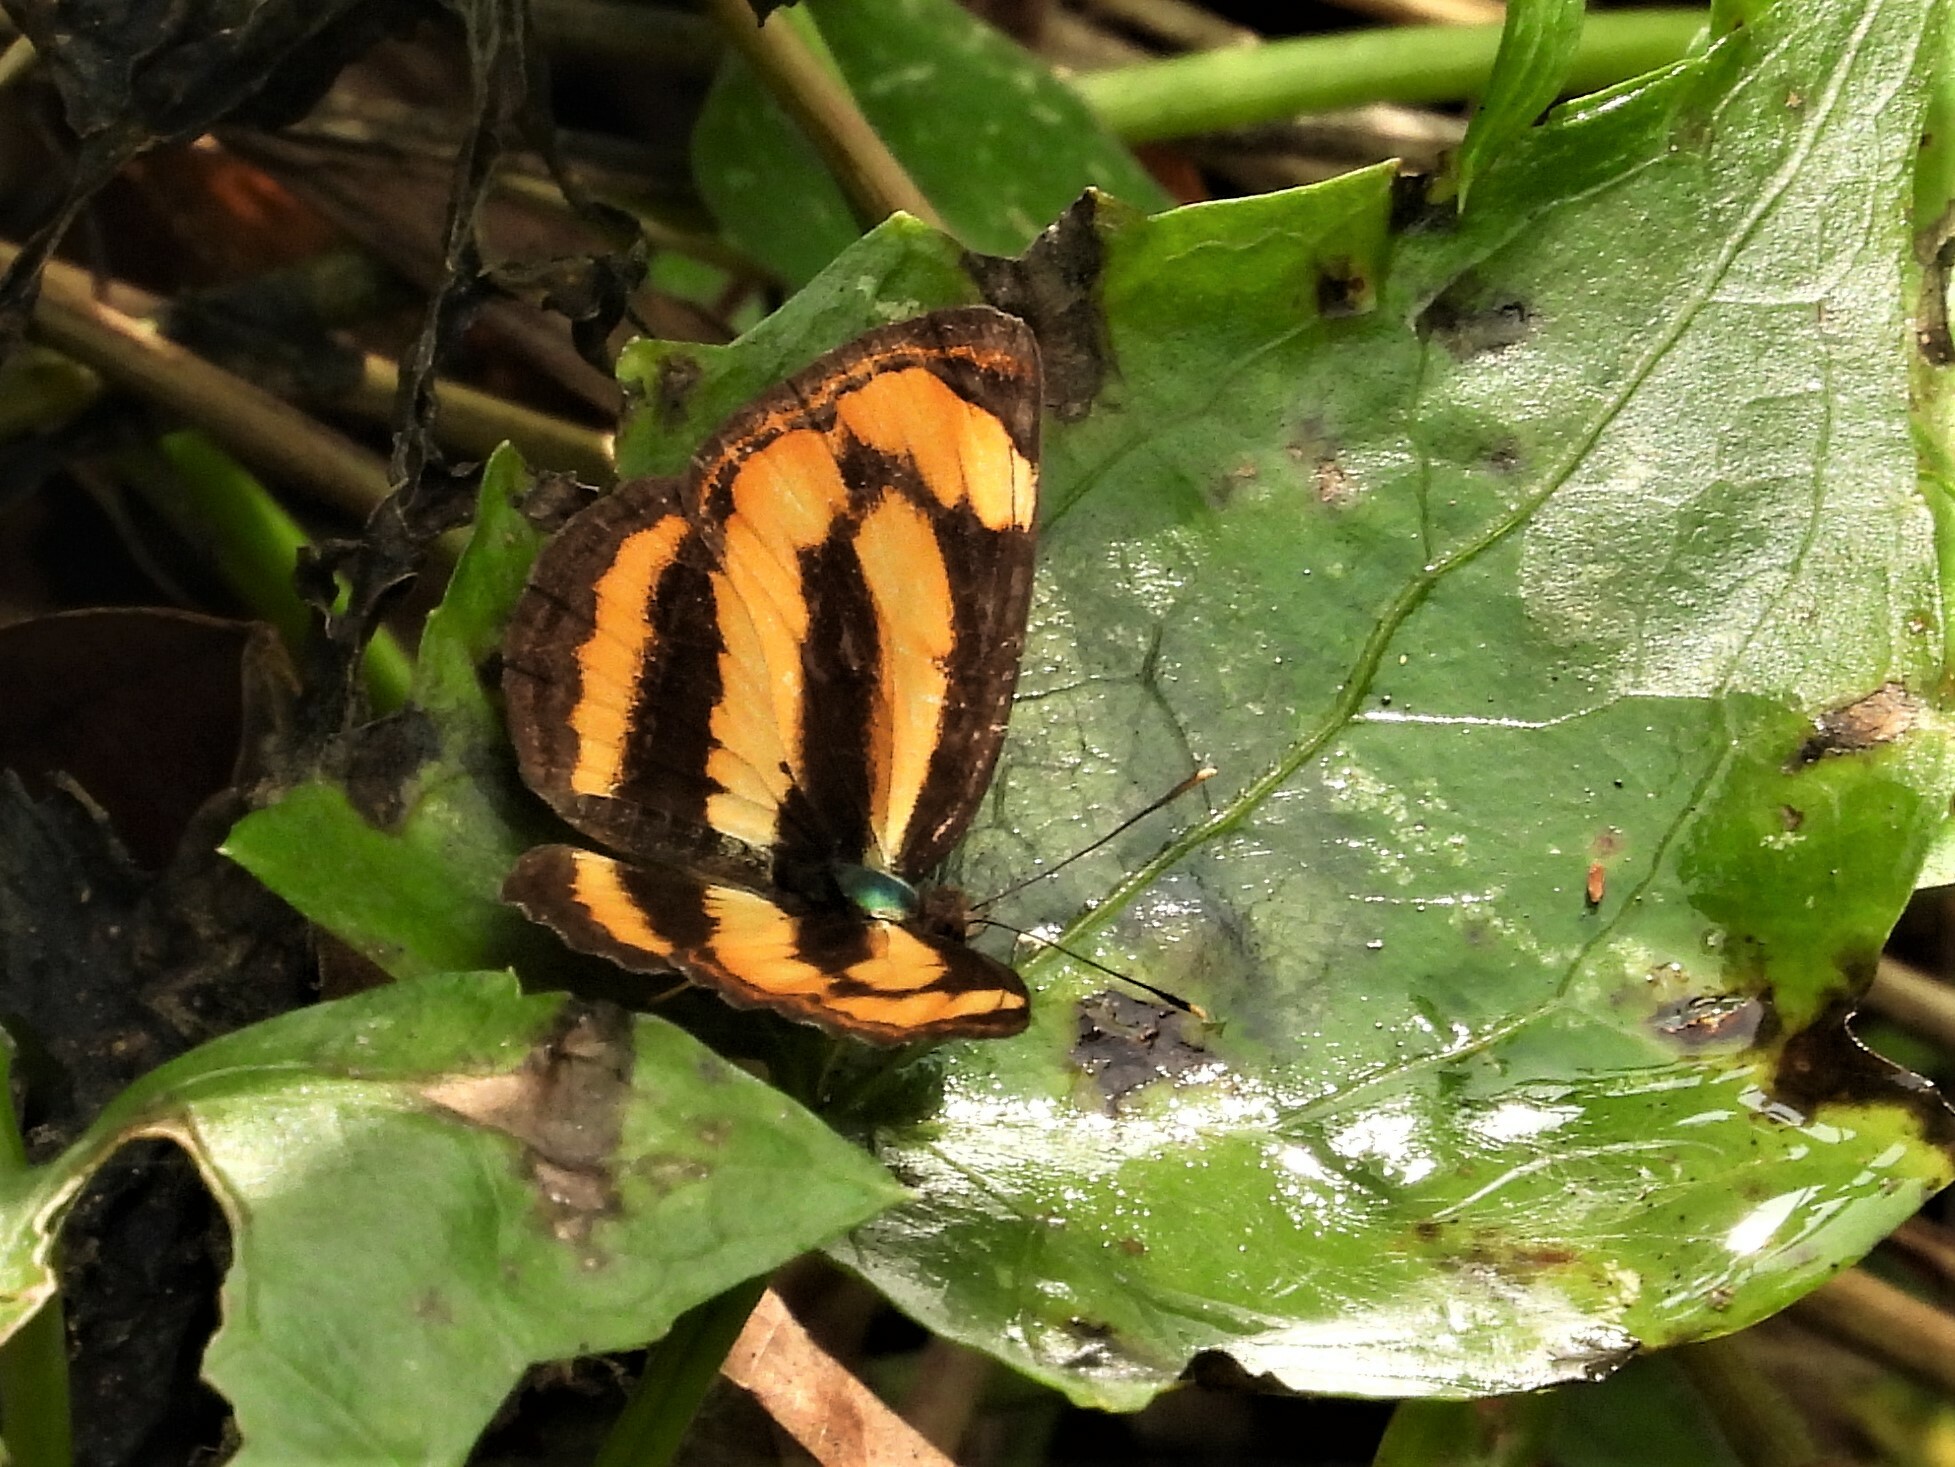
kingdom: Animalia
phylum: Arthropoda
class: Insecta
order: Lepidoptera
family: Nymphalidae
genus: Pantoporia
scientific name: Pantoporia hordonia
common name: Common lascar
